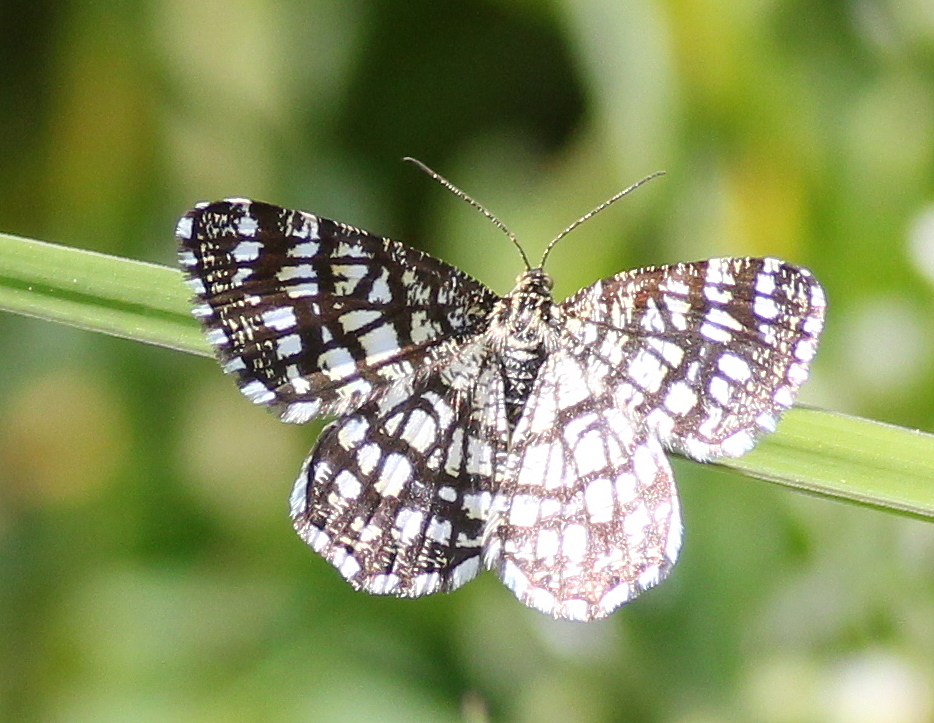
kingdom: Animalia
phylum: Arthropoda
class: Insecta
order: Lepidoptera
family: Geometridae
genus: Chiasmia
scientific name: Chiasmia clathrata
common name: Latticed heath
